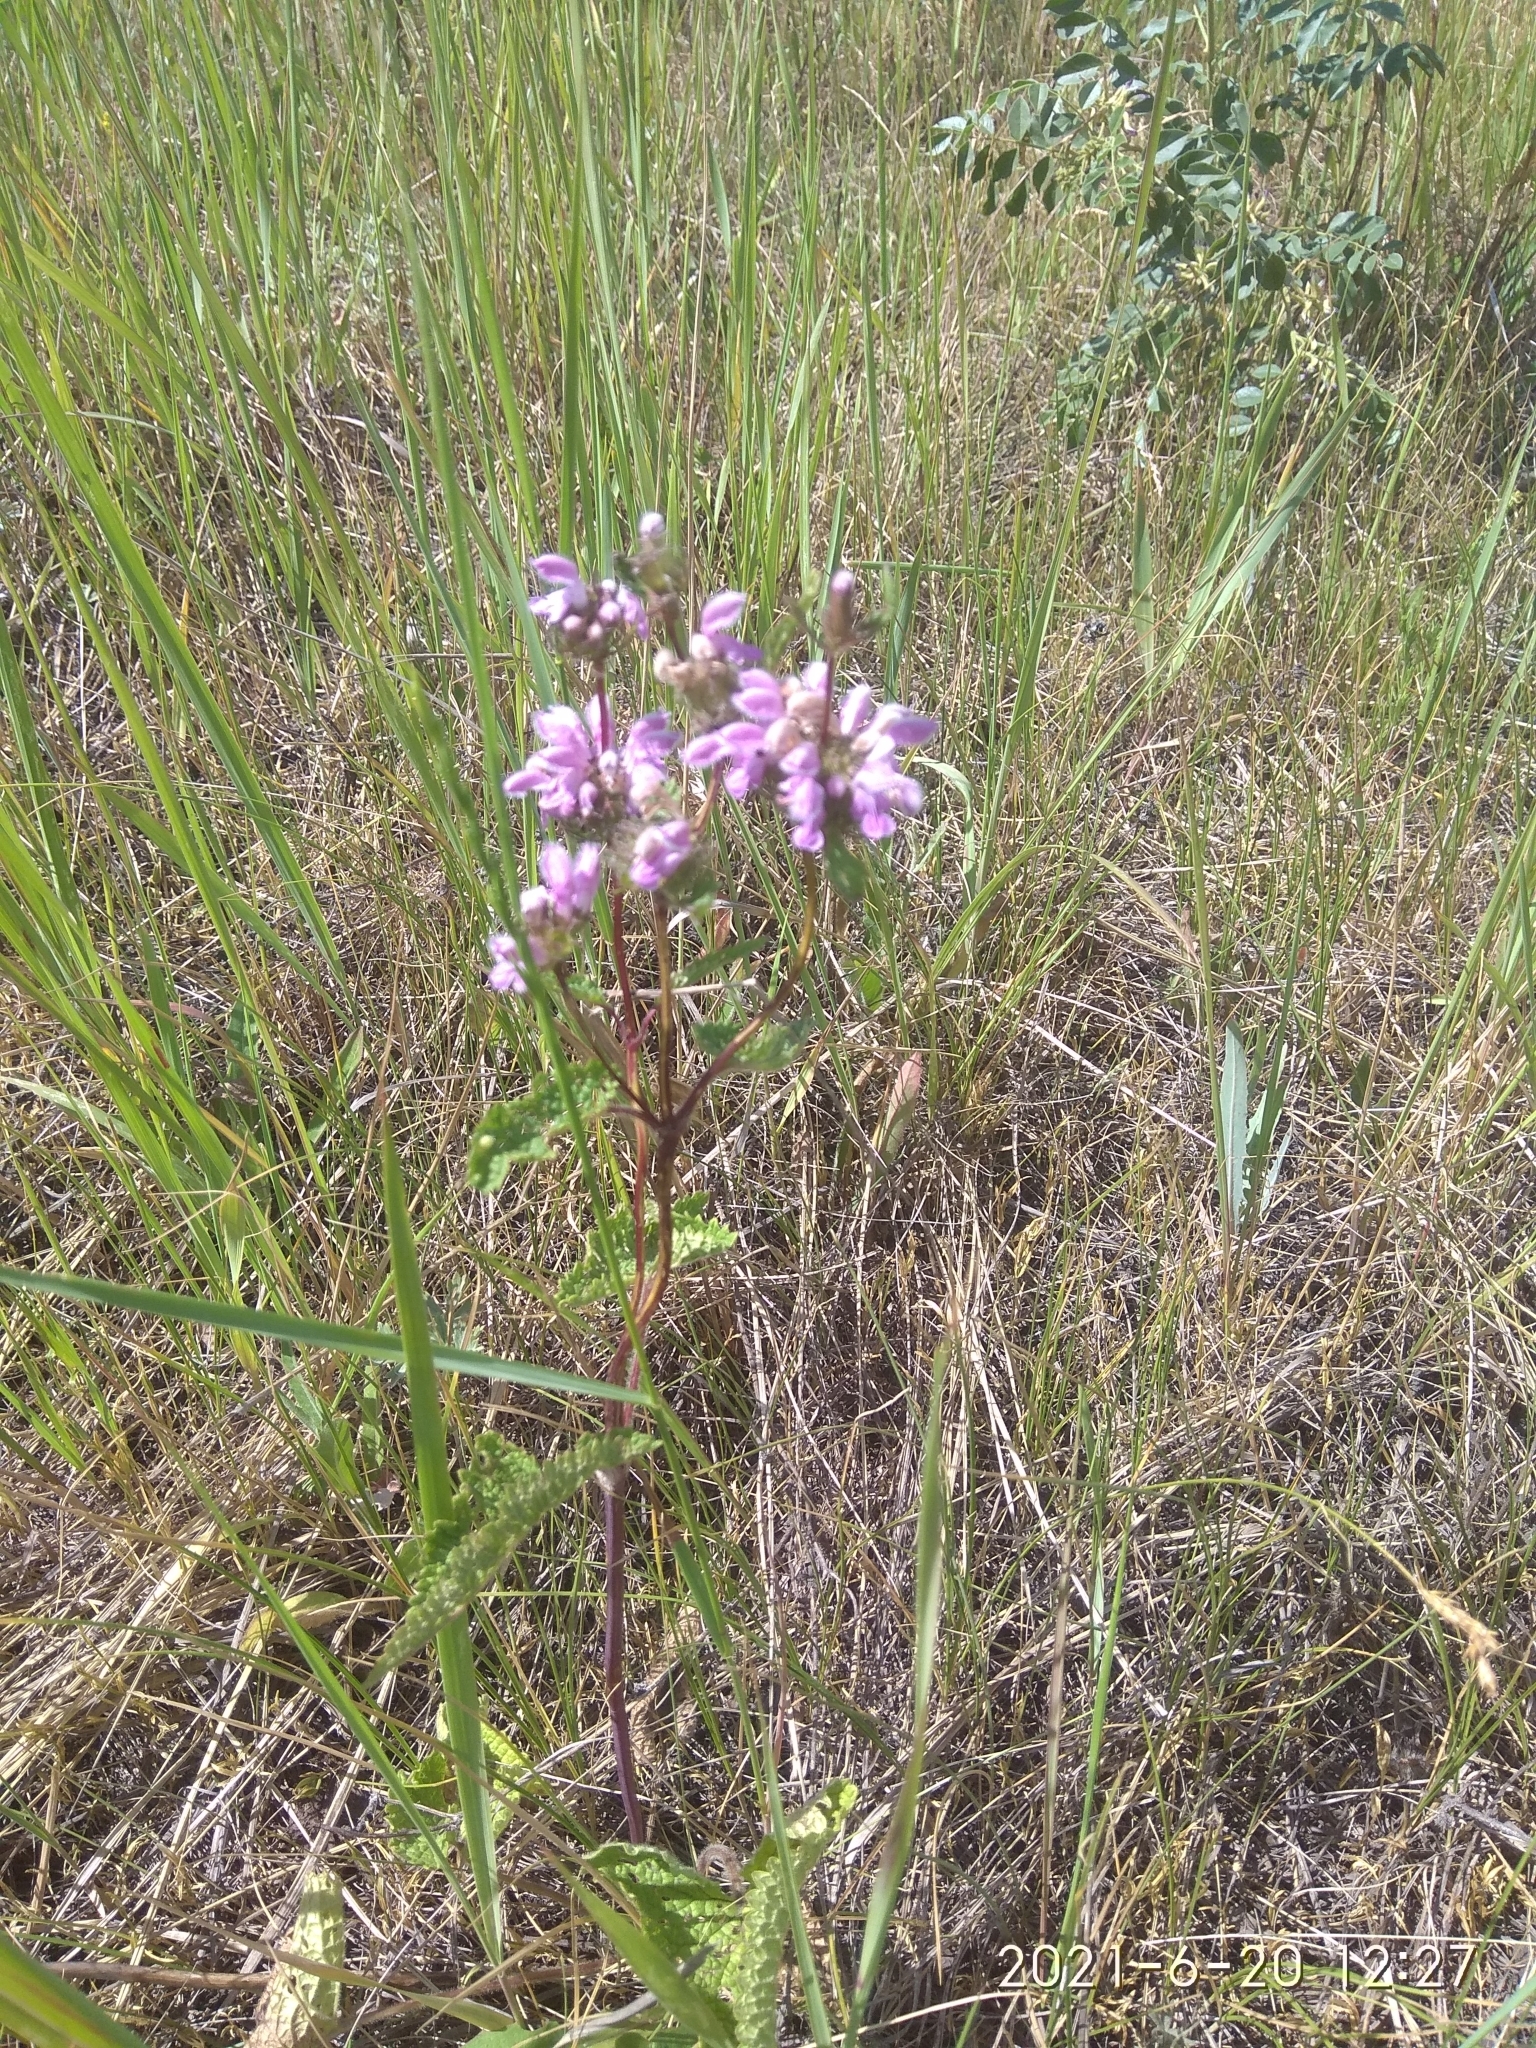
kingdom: Plantae
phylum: Tracheophyta
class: Magnoliopsida
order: Lamiales
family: Lamiaceae
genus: Phlomoides
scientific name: Phlomoides tuberosa
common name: Tuberous jerusalem sage
